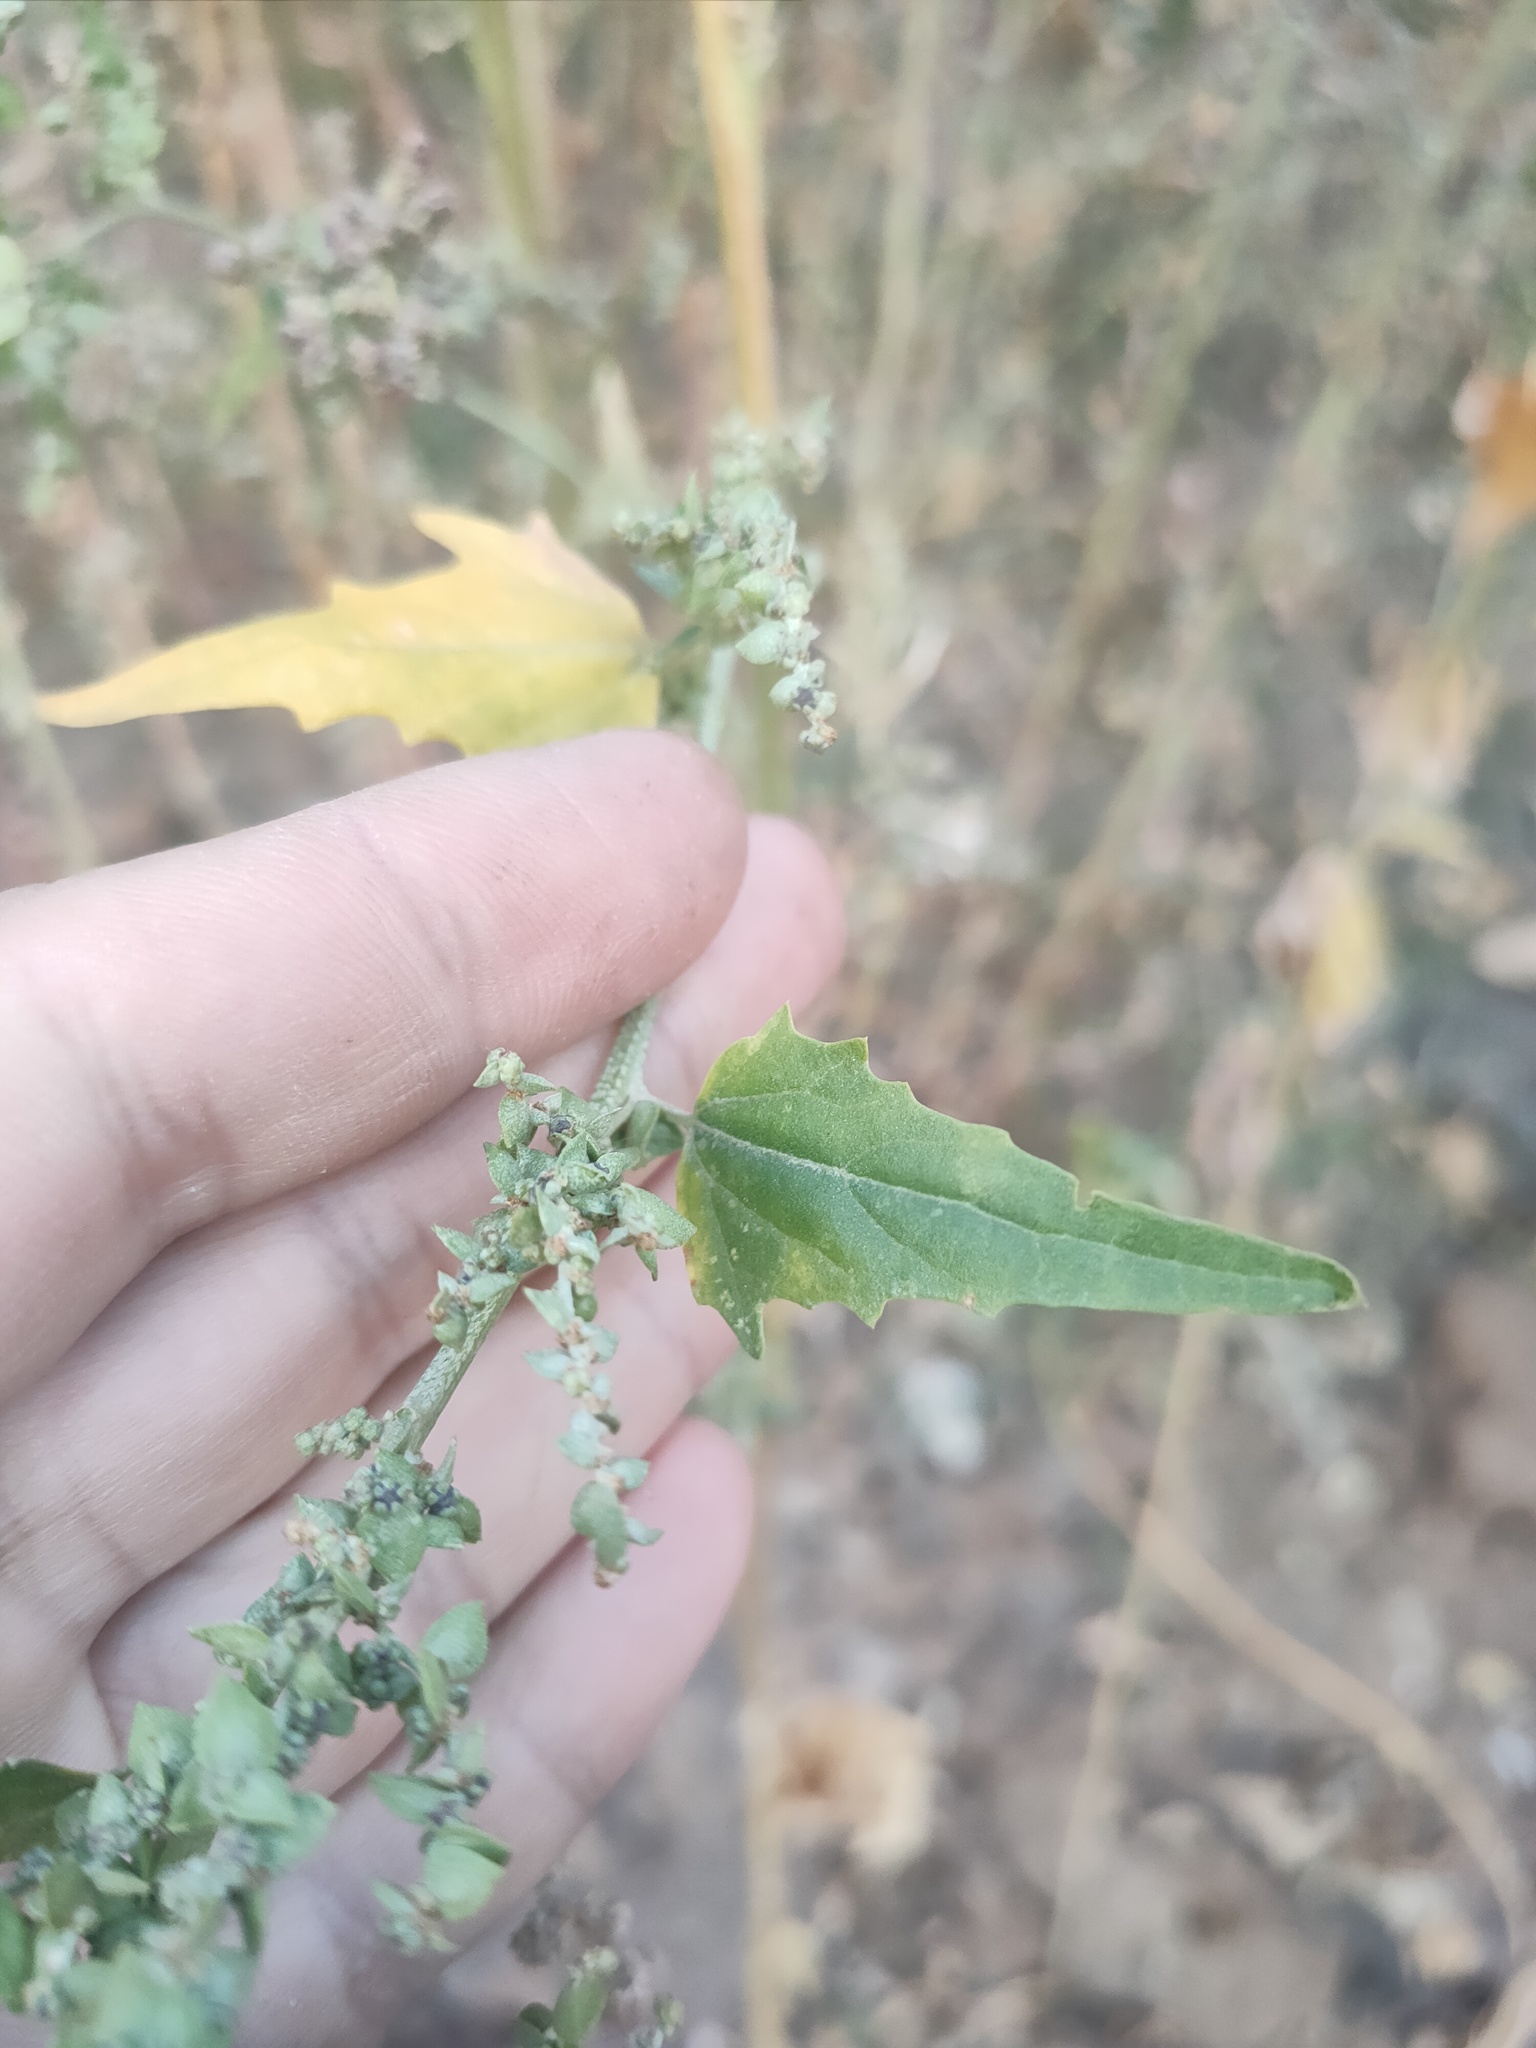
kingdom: Plantae
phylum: Tracheophyta
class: Magnoliopsida
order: Caryophyllales
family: Amaranthaceae
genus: Atriplex
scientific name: Atriplex sagittata
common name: Purple orache
